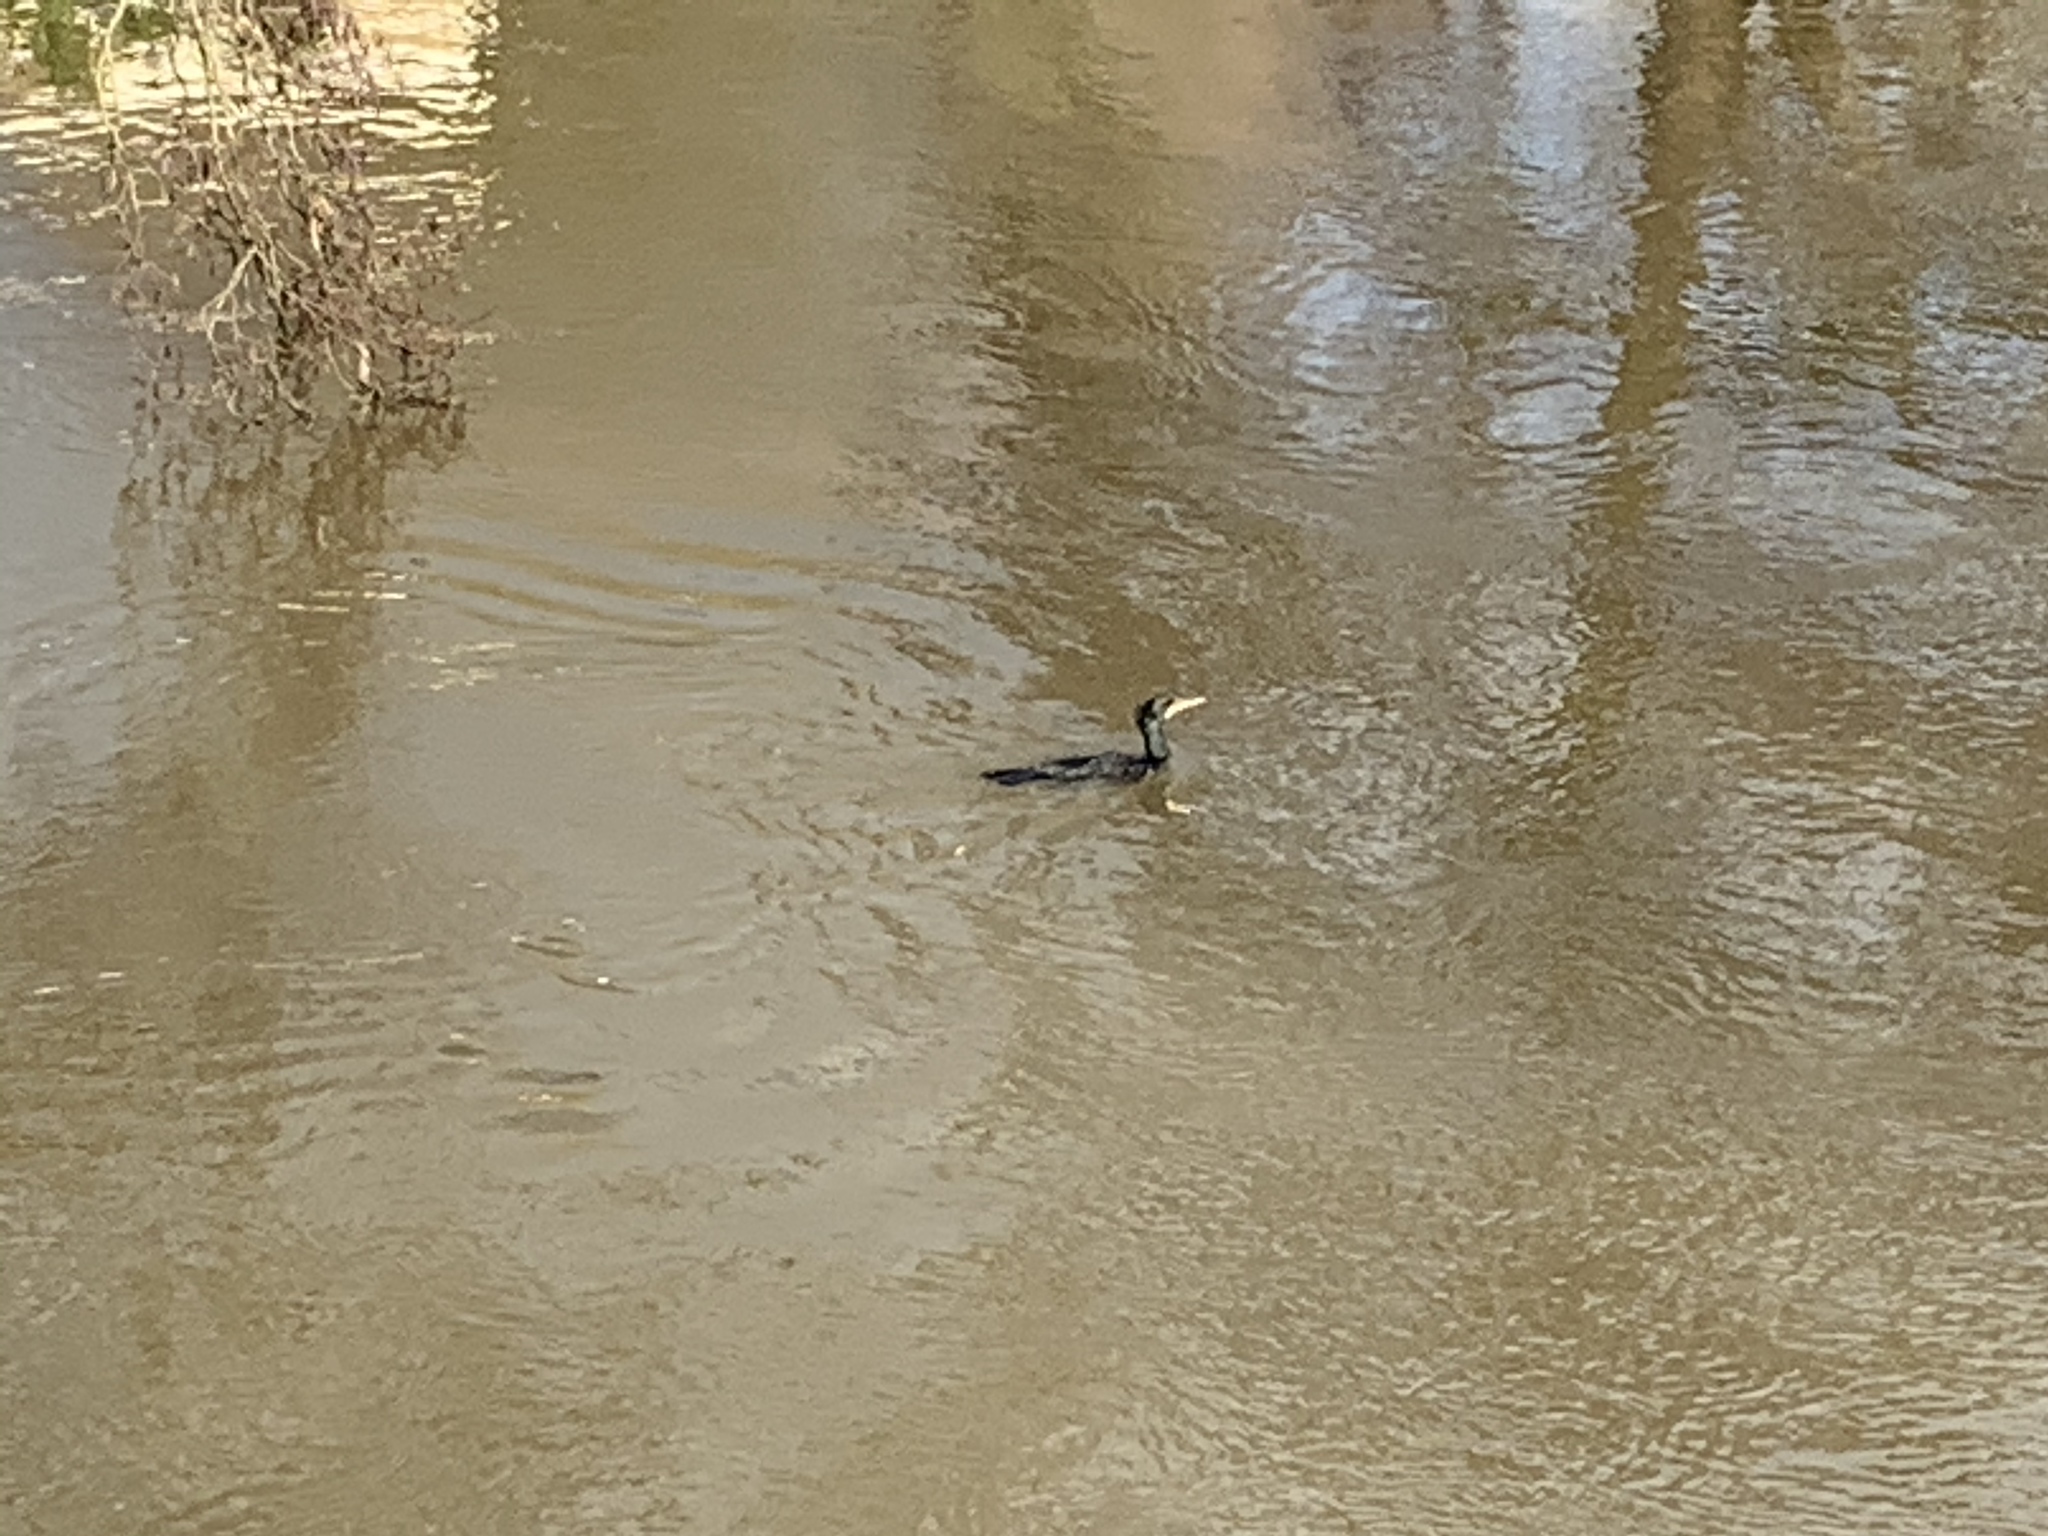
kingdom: Animalia
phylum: Chordata
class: Aves
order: Suliformes
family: Phalacrocoracidae
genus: Phalacrocorax
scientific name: Phalacrocorax carbo
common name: Great cormorant
